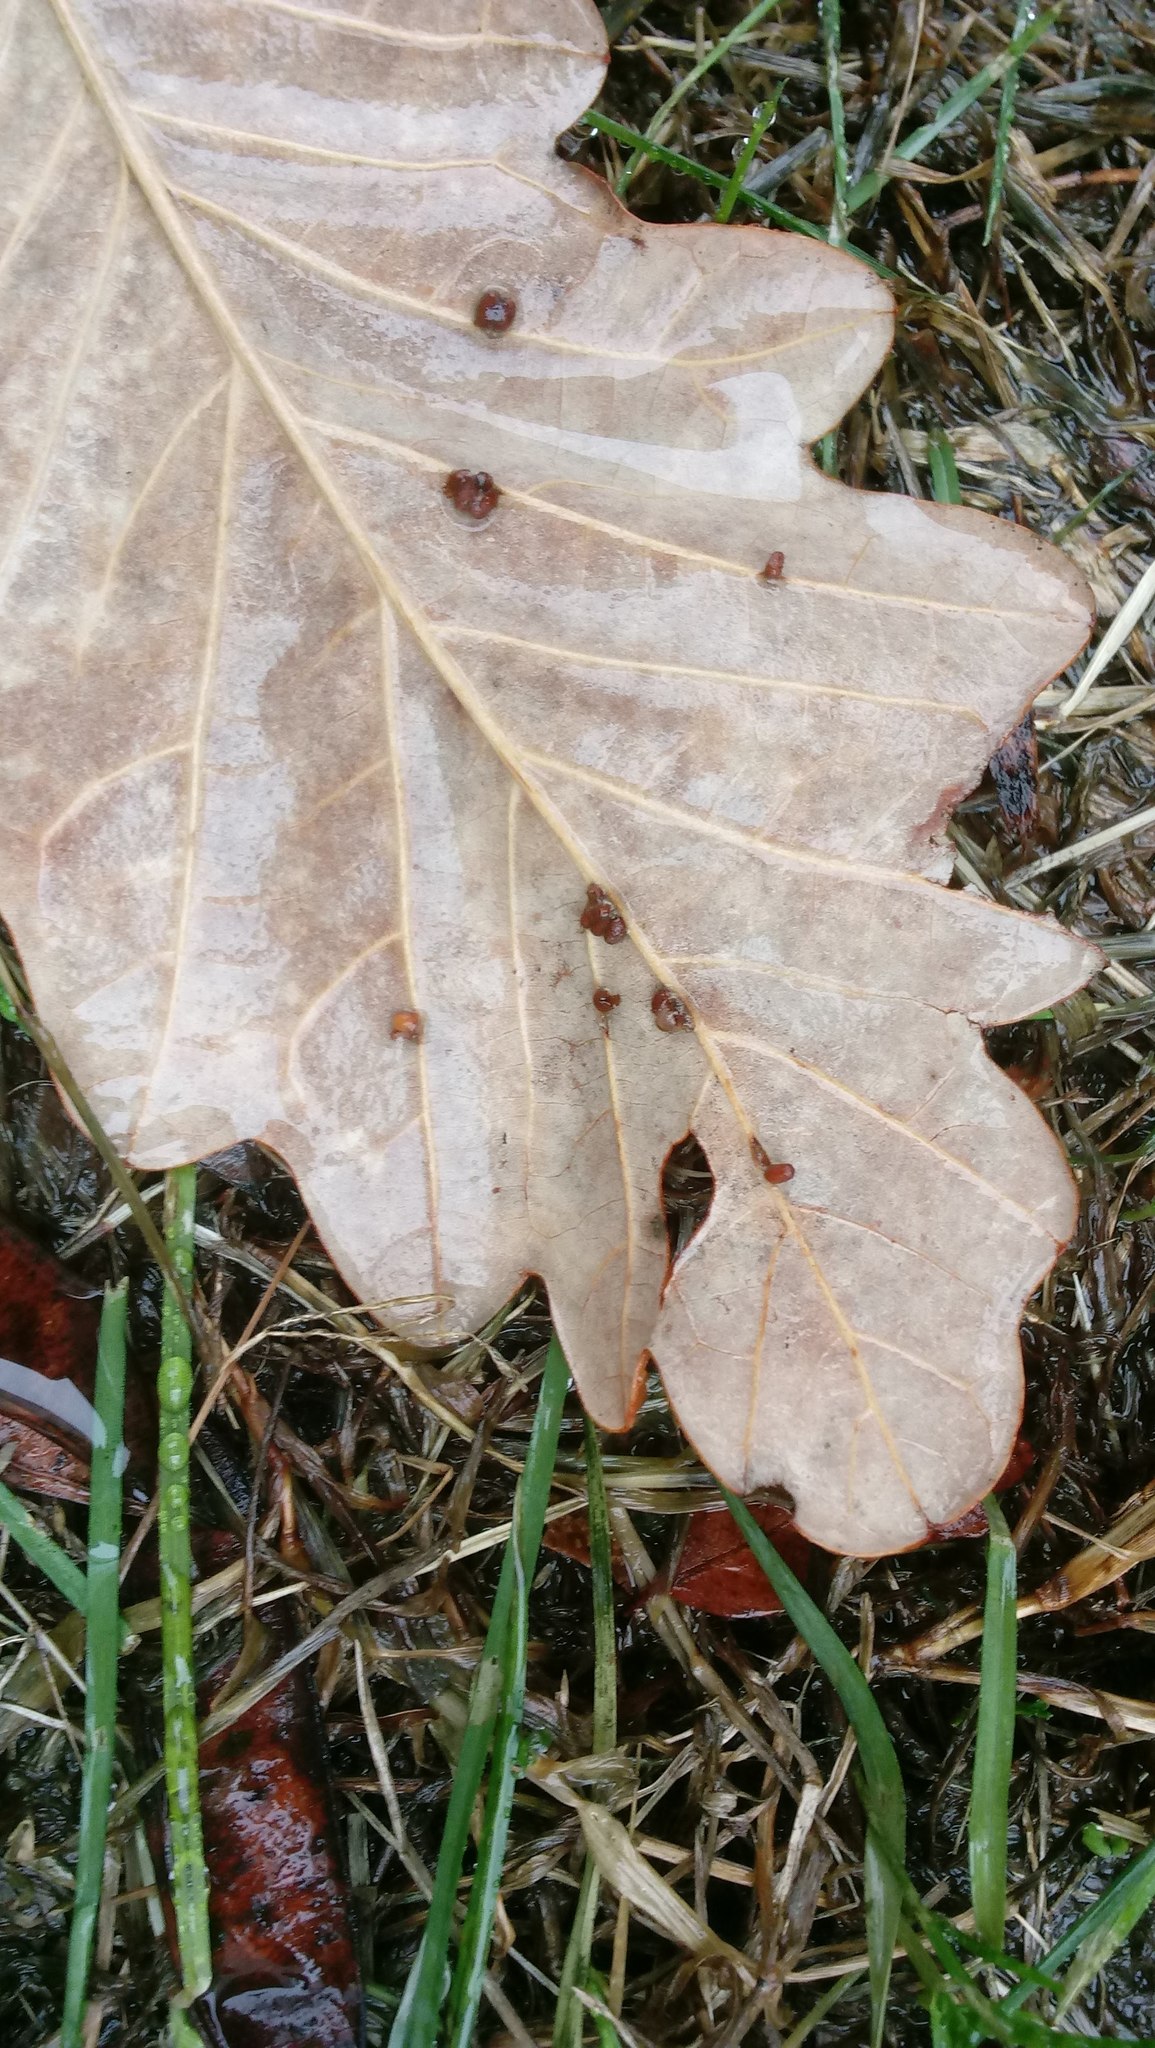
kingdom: Animalia
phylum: Arthropoda
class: Insecta
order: Hymenoptera
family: Cynipidae
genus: Andricus
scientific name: Andricus Druon ignotum
